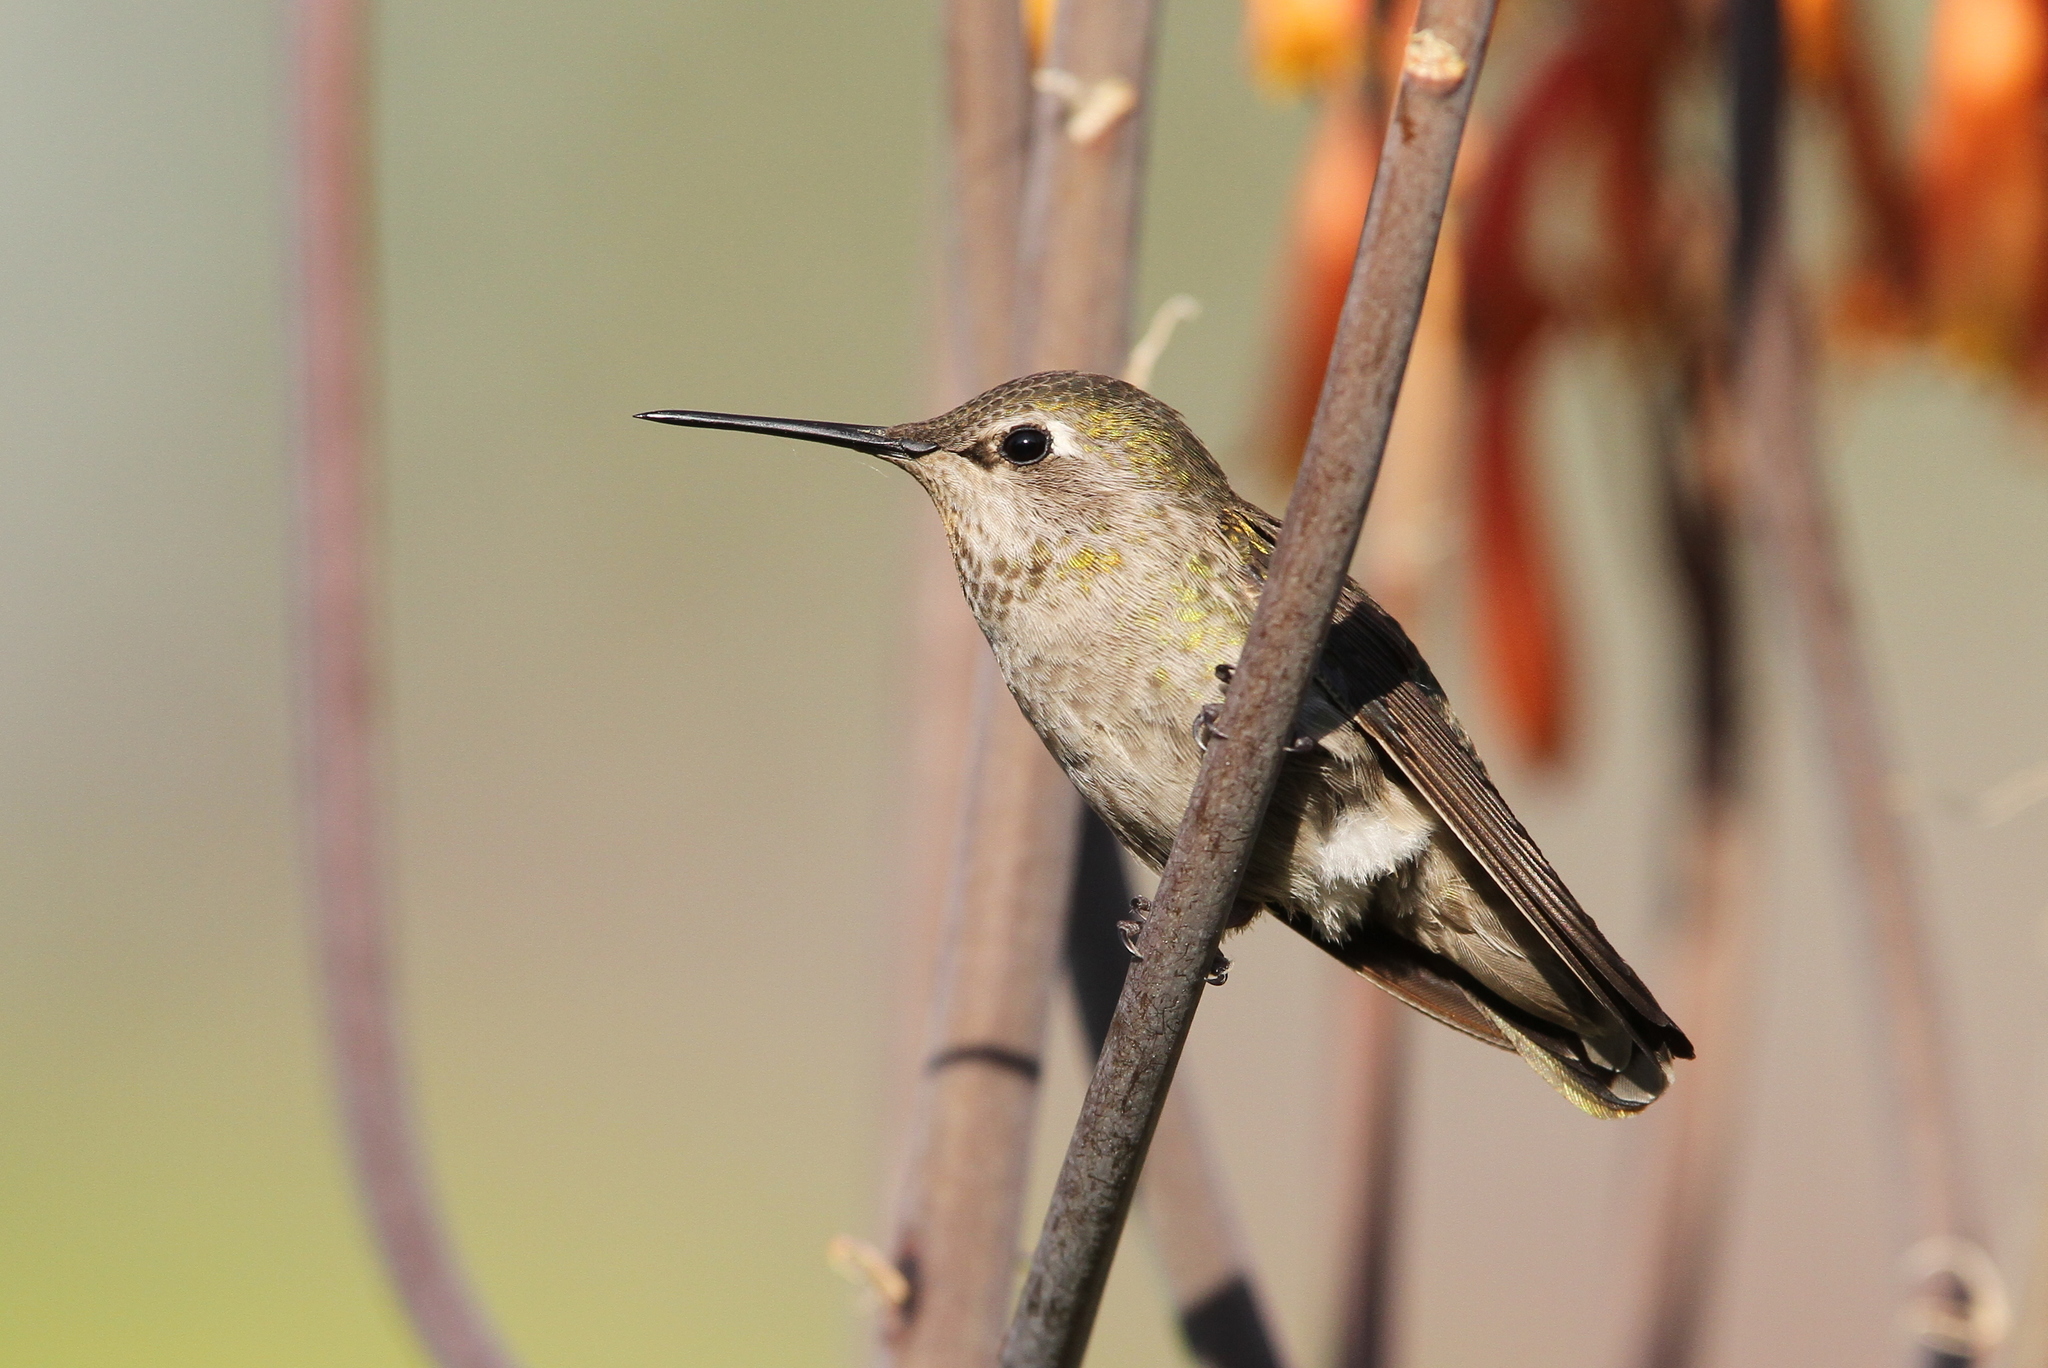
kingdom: Animalia
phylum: Chordata
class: Aves
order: Apodiformes
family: Trochilidae
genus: Calypte
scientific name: Calypte anna
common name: Anna's hummingbird
